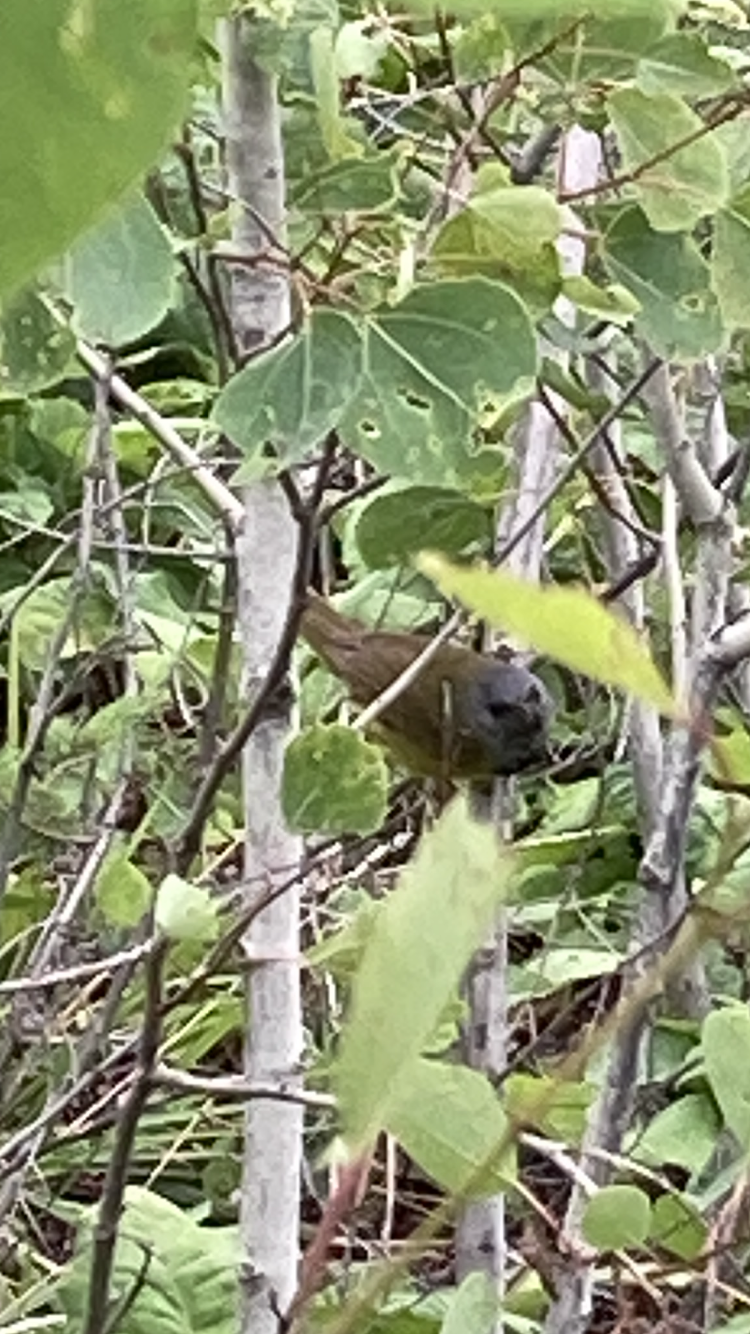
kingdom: Animalia
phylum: Chordata
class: Aves
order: Passeriformes
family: Parulidae
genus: Geothlypis
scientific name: Geothlypis philadelphia
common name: Mourning warbler
